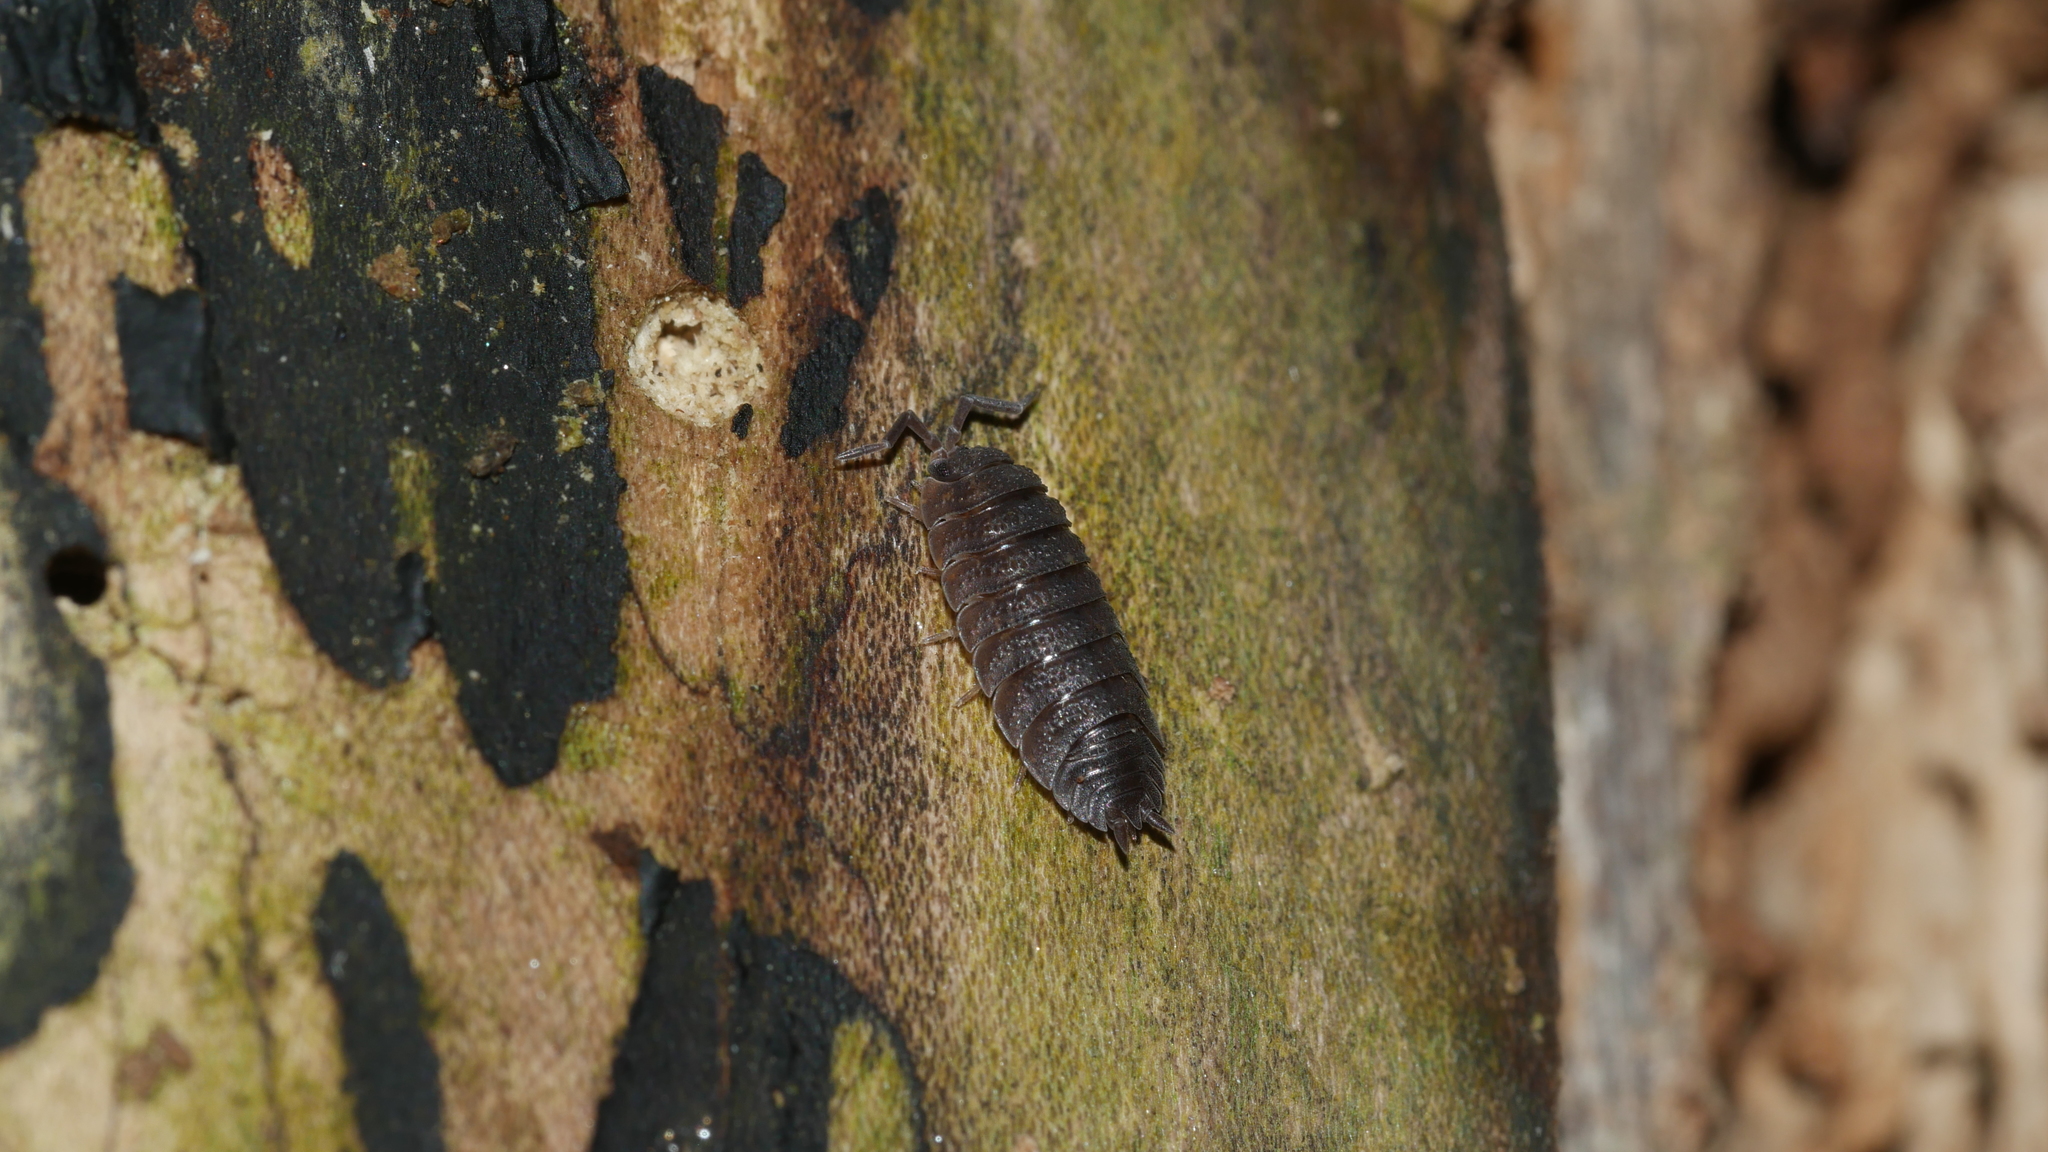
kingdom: Animalia
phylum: Arthropoda
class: Malacostraca
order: Isopoda
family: Porcellionidae
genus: Porcellio
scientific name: Porcellio scaber
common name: Common rough woodlouse
